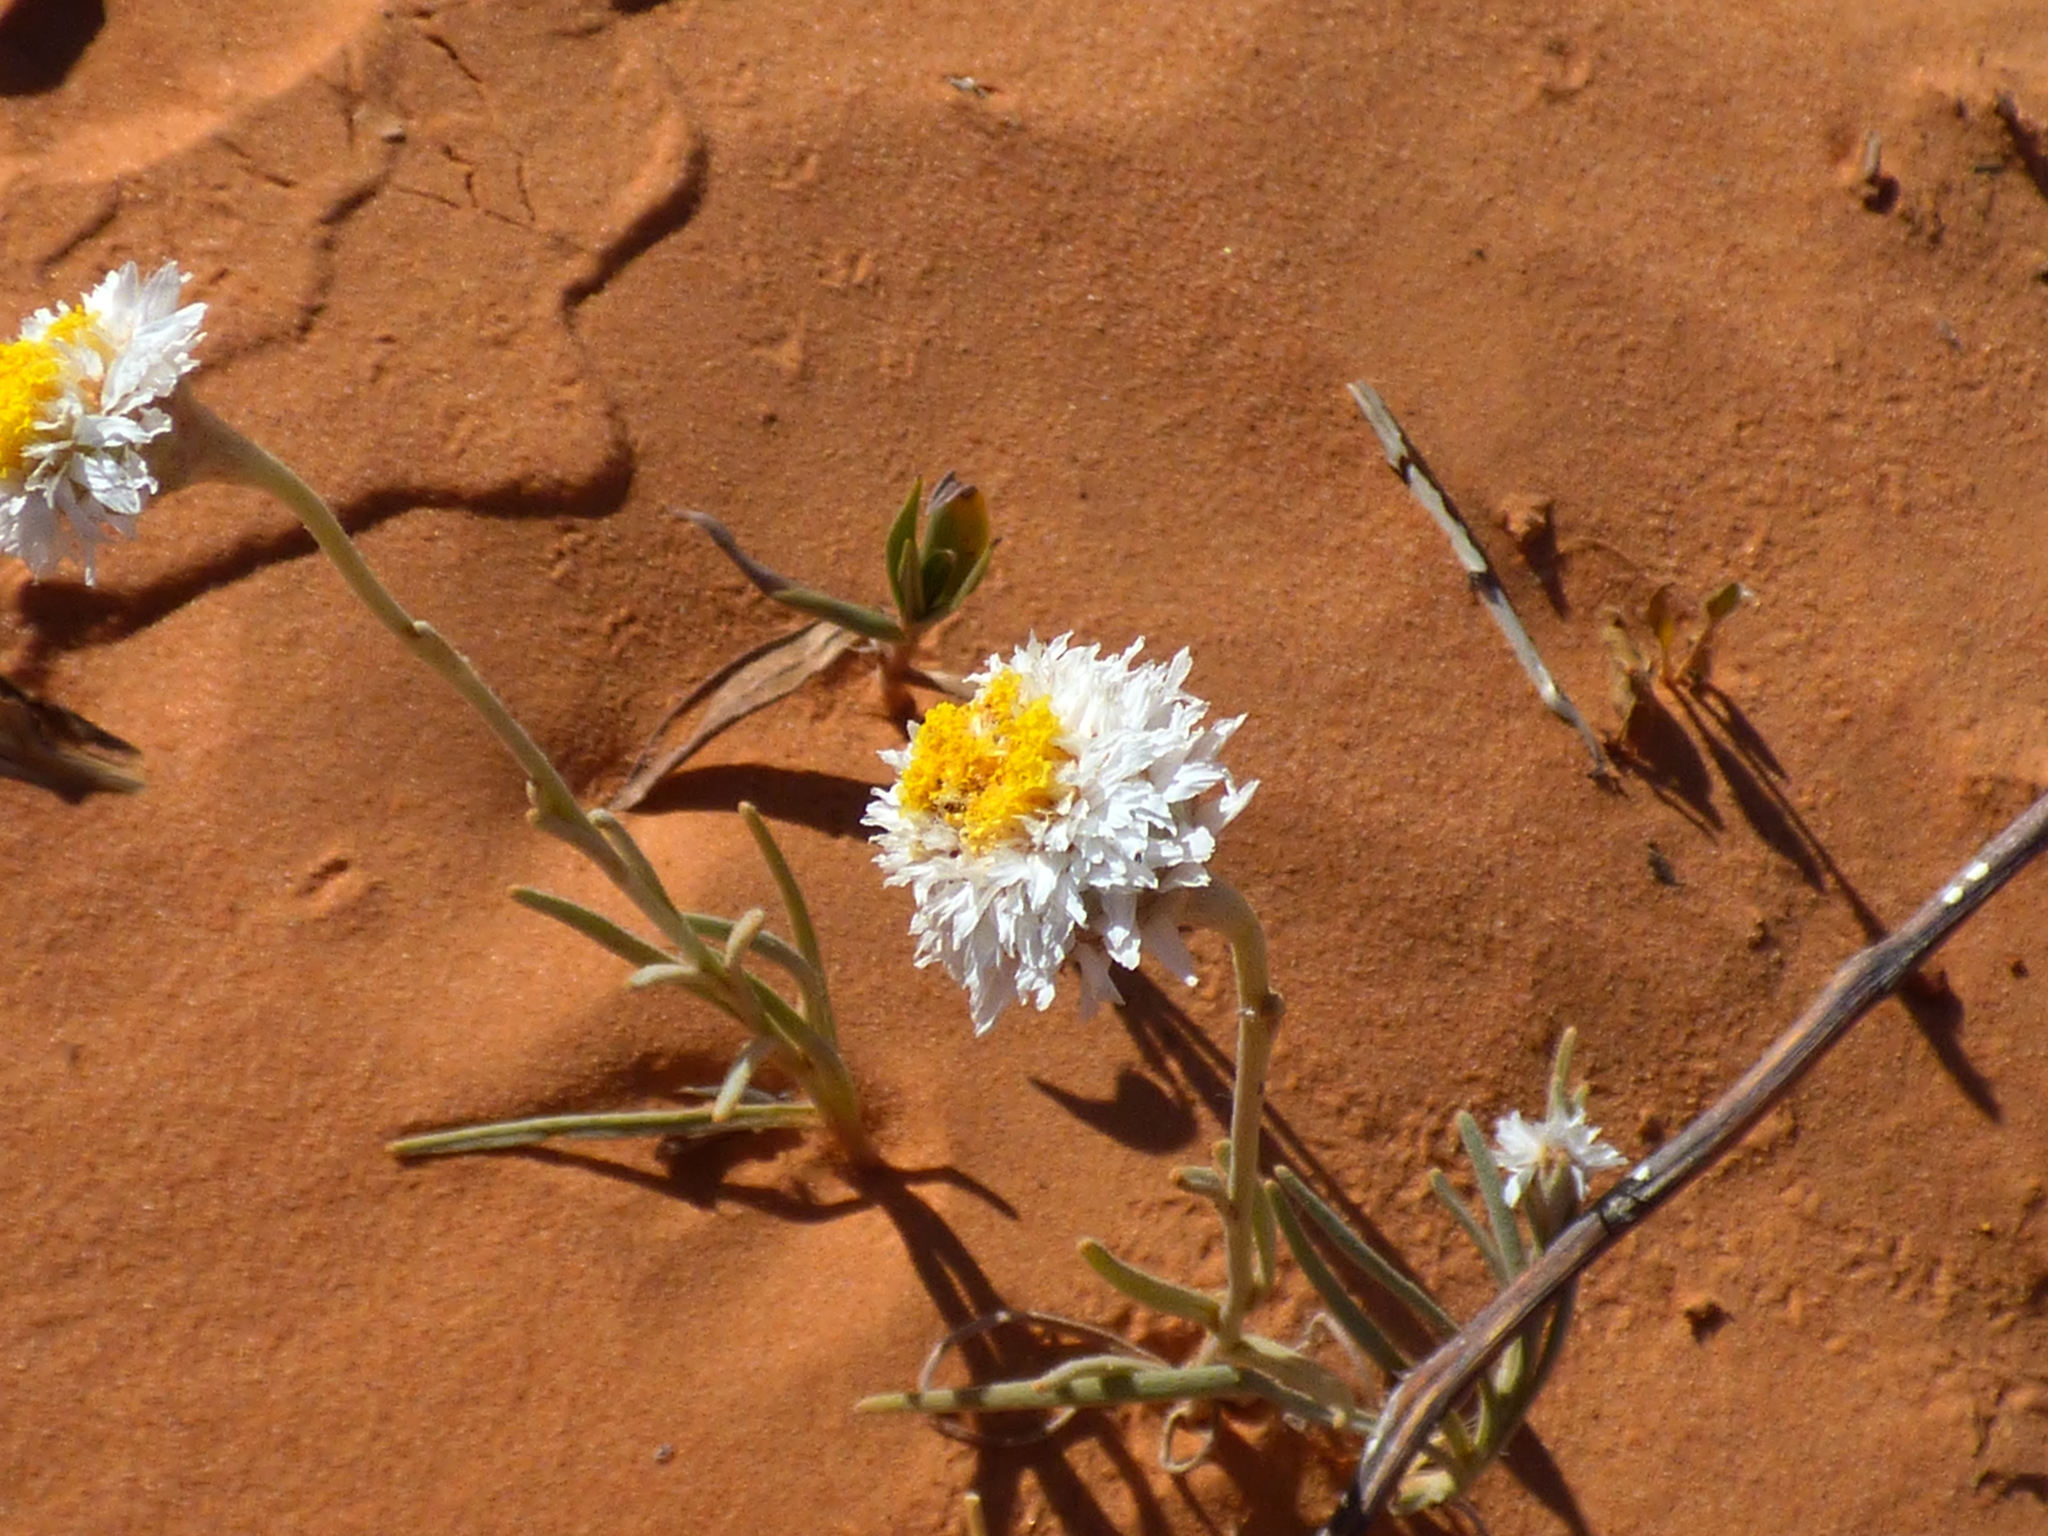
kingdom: Plantae
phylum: Tracheophyta
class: Magnoliopsida
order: Asterales
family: Asteraceae
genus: Polycalymma
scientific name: Polycalymma stuartii
